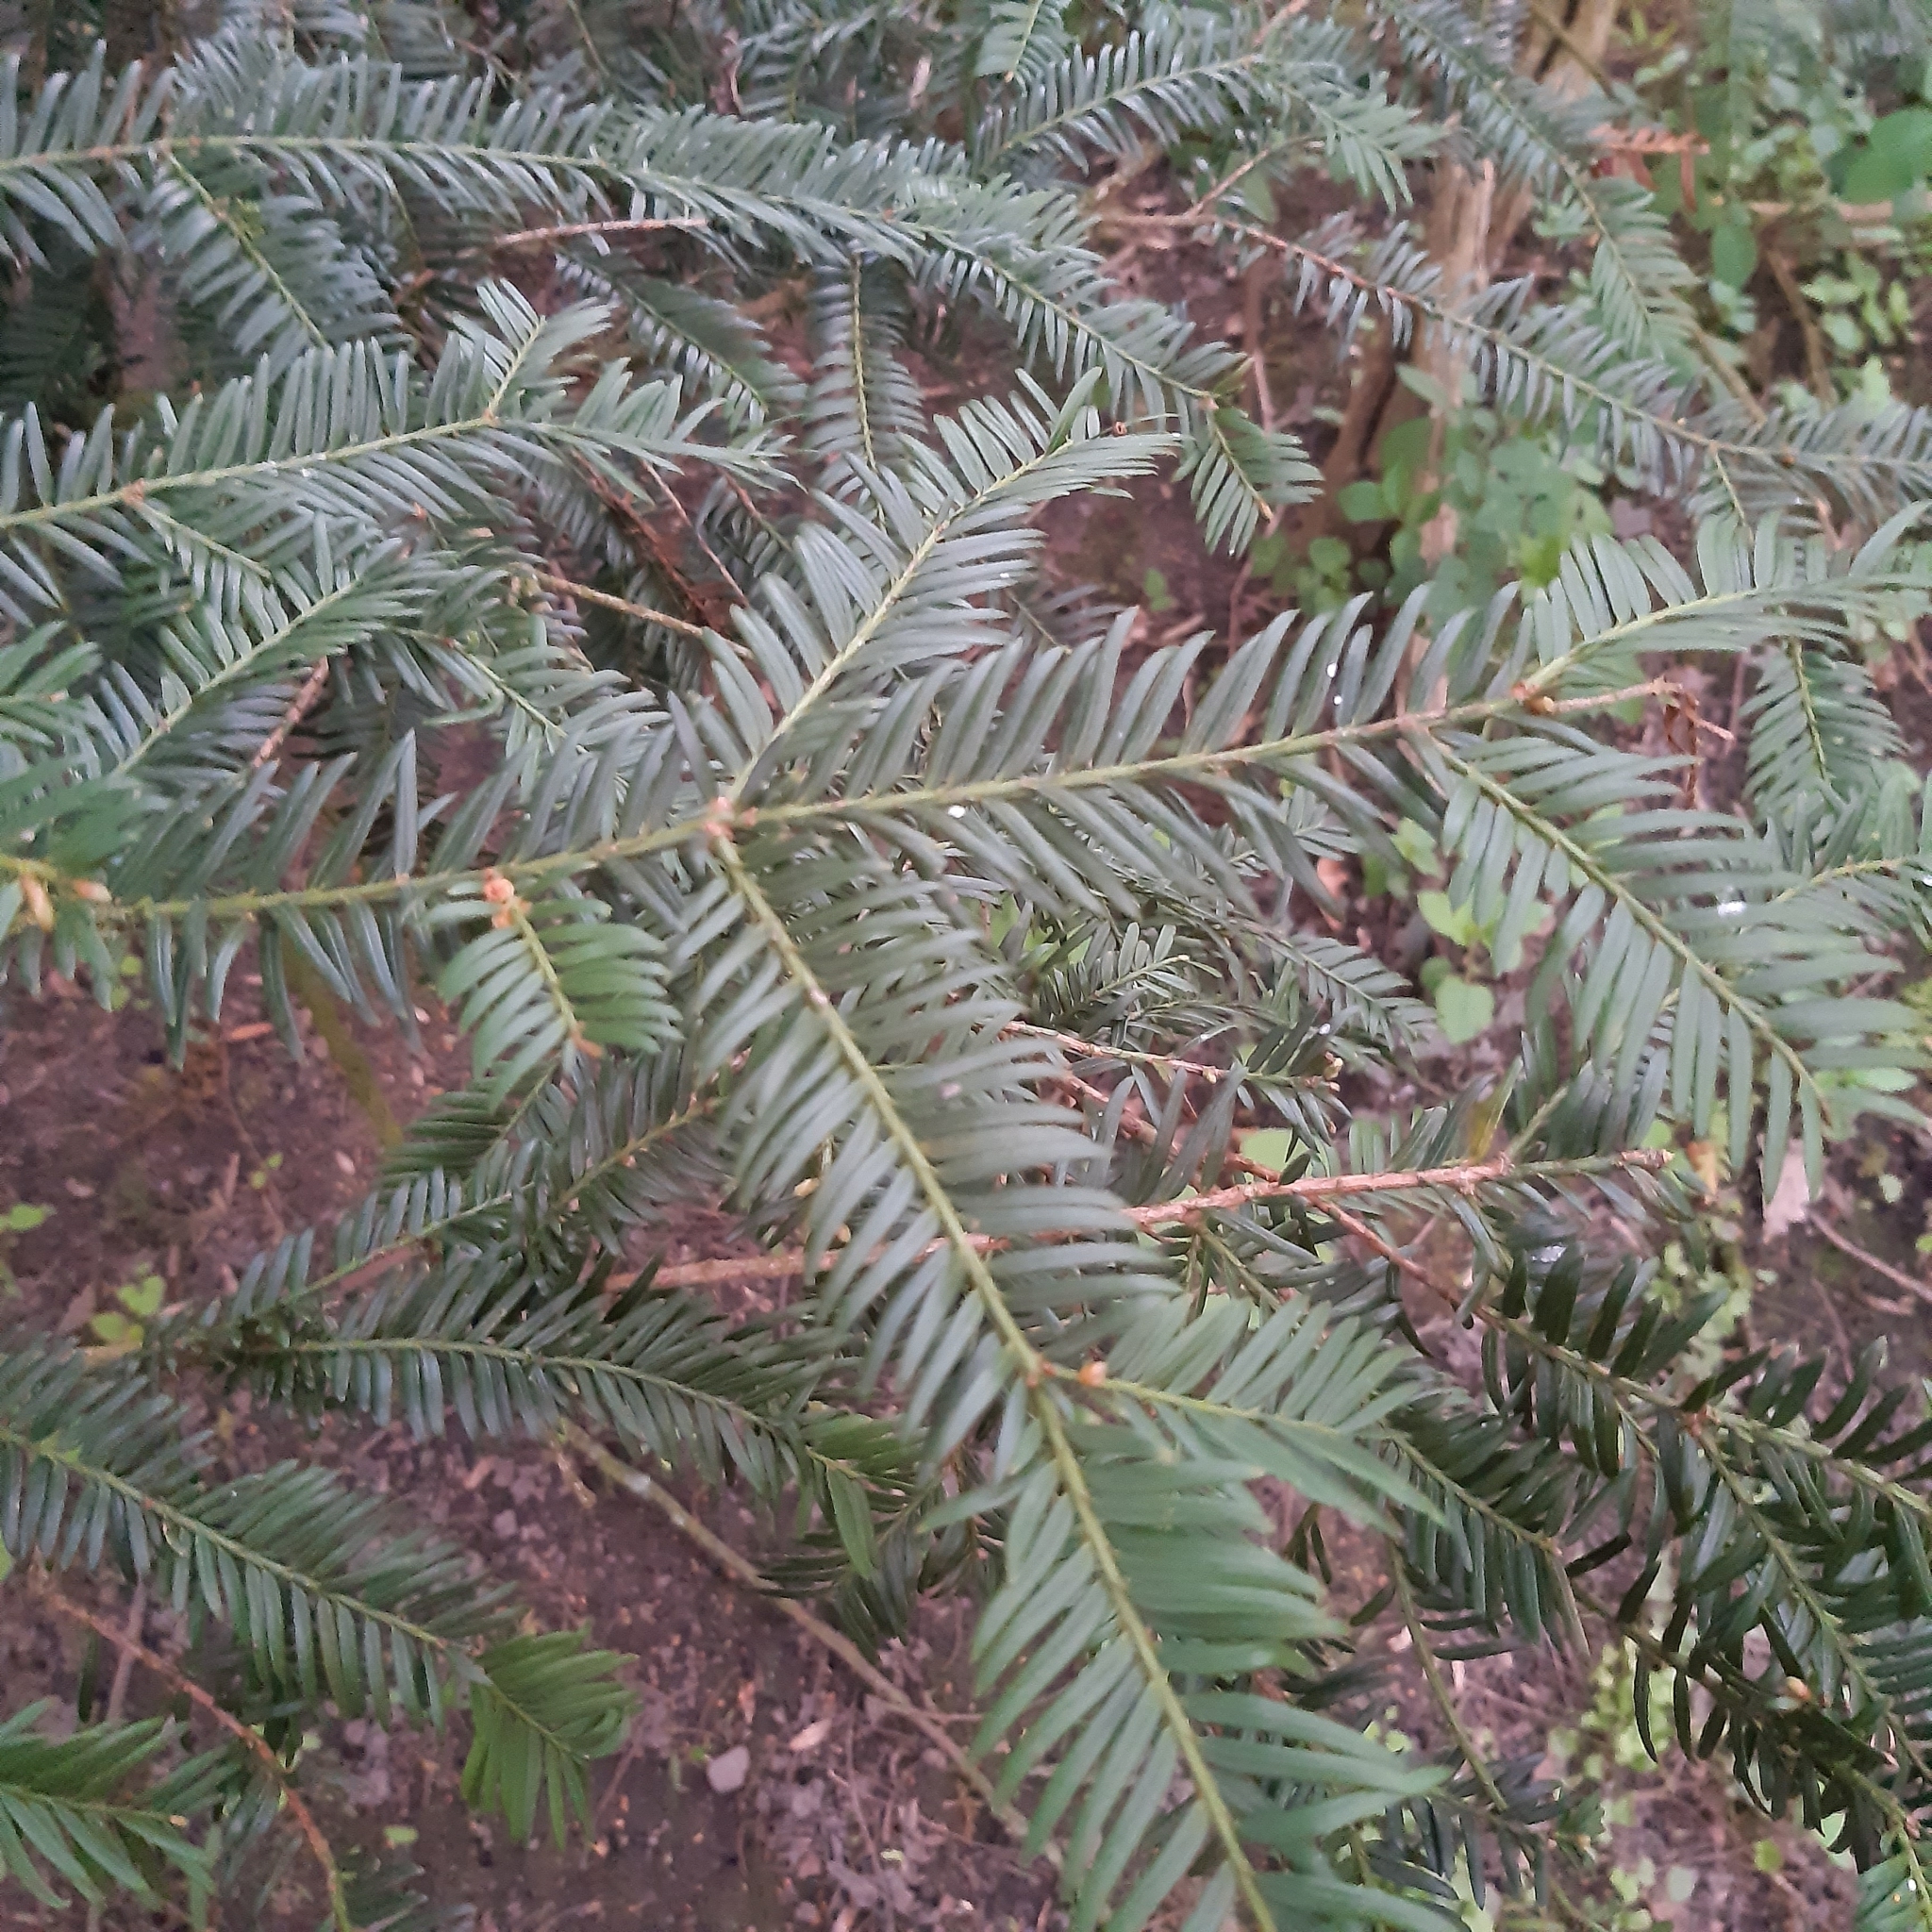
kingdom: Plantae
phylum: Tracheophyta
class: Pinopsida
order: Pinales
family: Taxaceae
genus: Taxus
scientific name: Taxus baccata
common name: Yew
